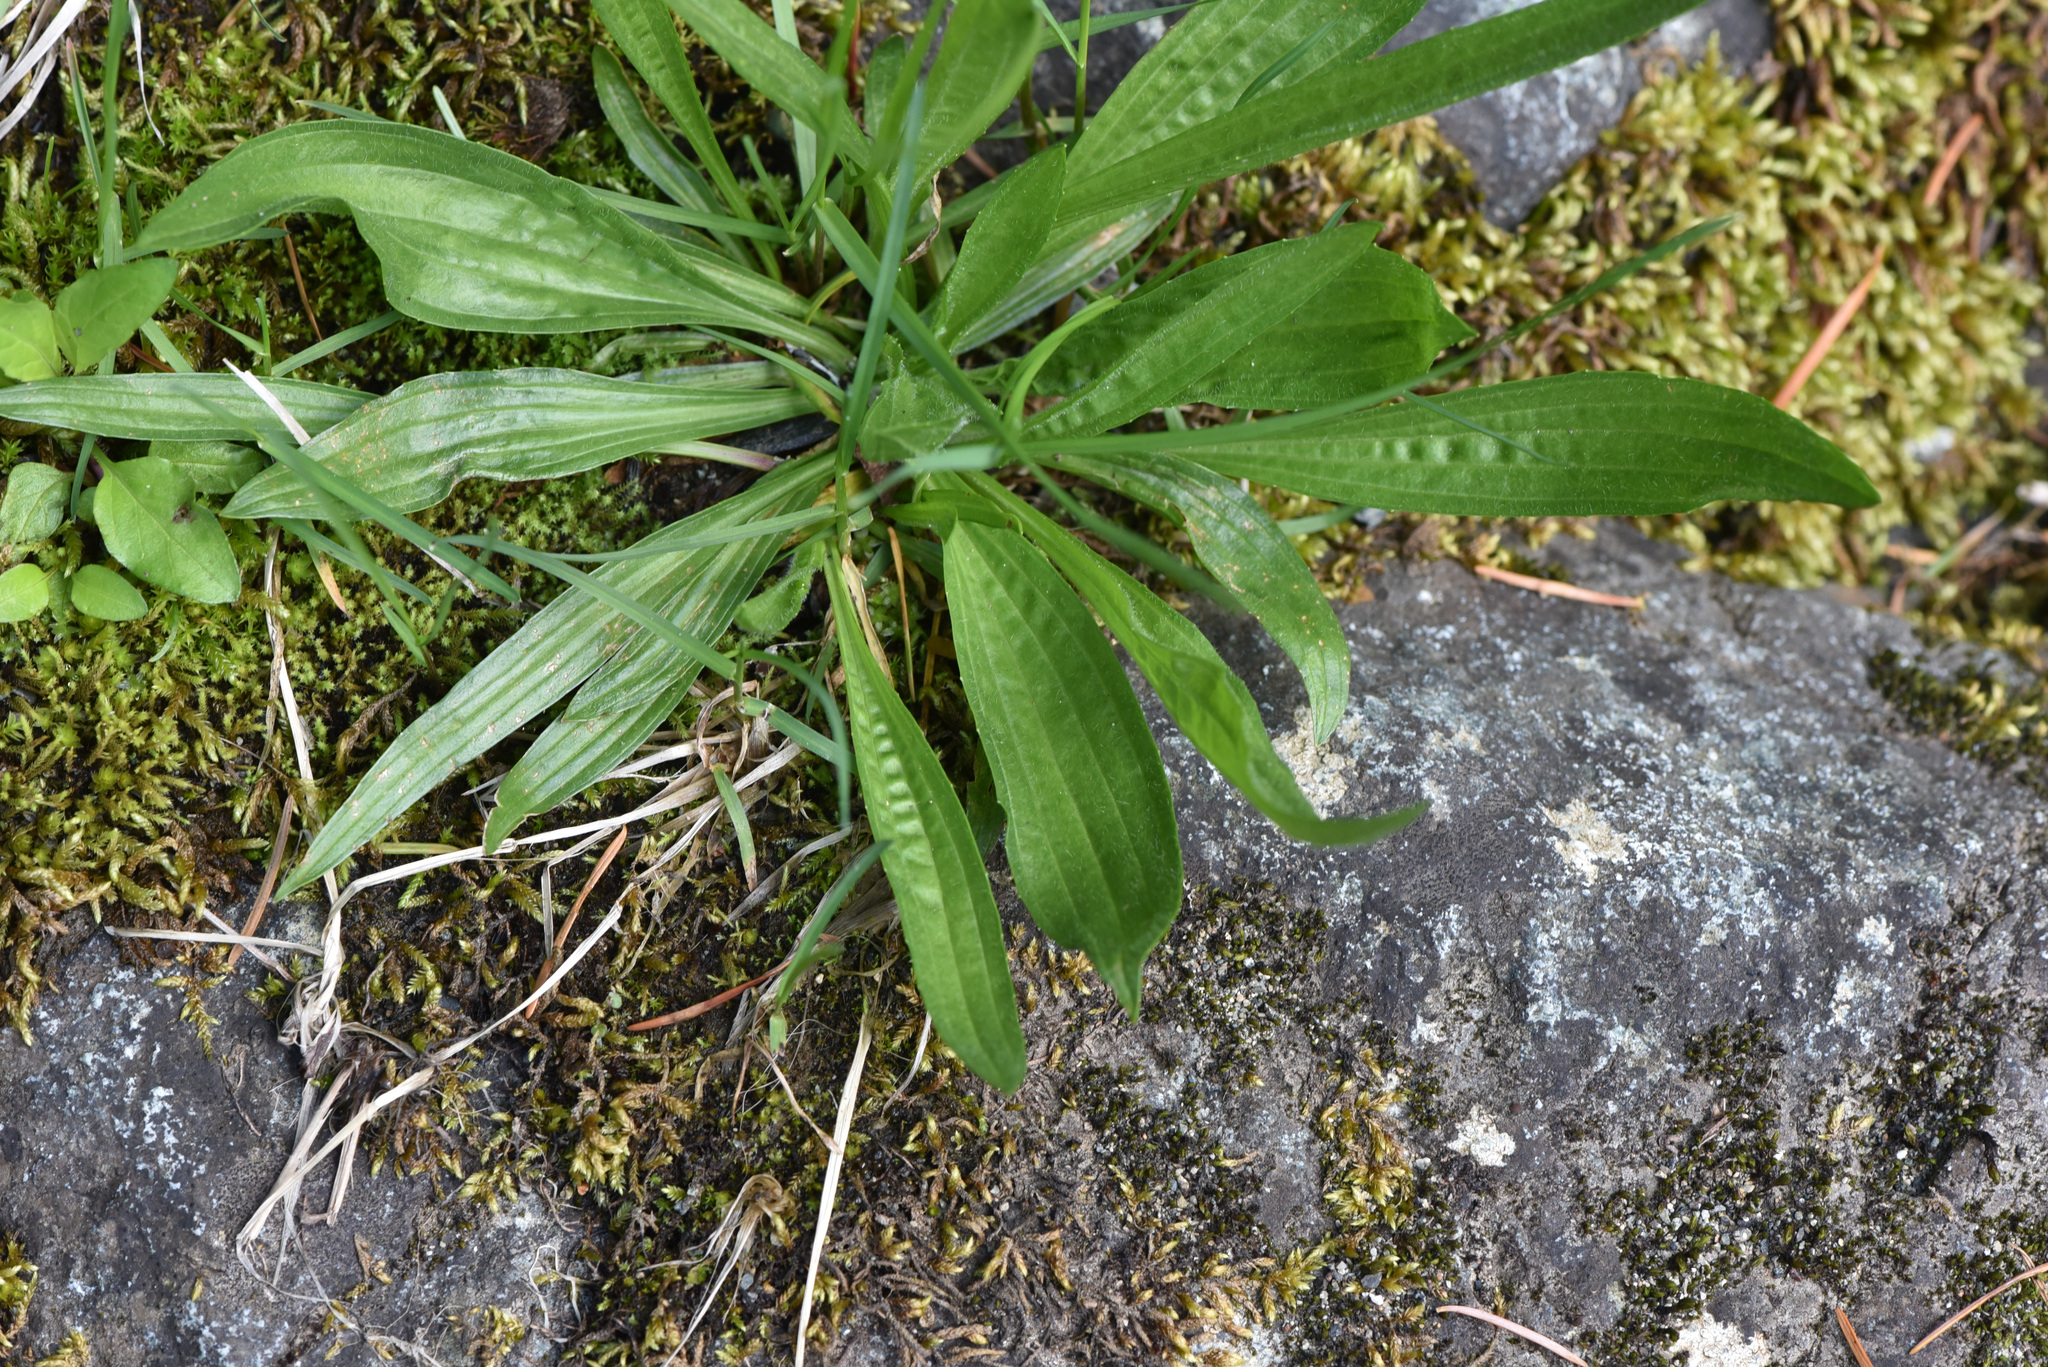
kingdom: Plantae
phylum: Tracheophyta
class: Magnoliopsida
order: Lamiales
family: Plantaginaceae
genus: Plantago
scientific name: Plantago lanceolata
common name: Ribwort plantain
